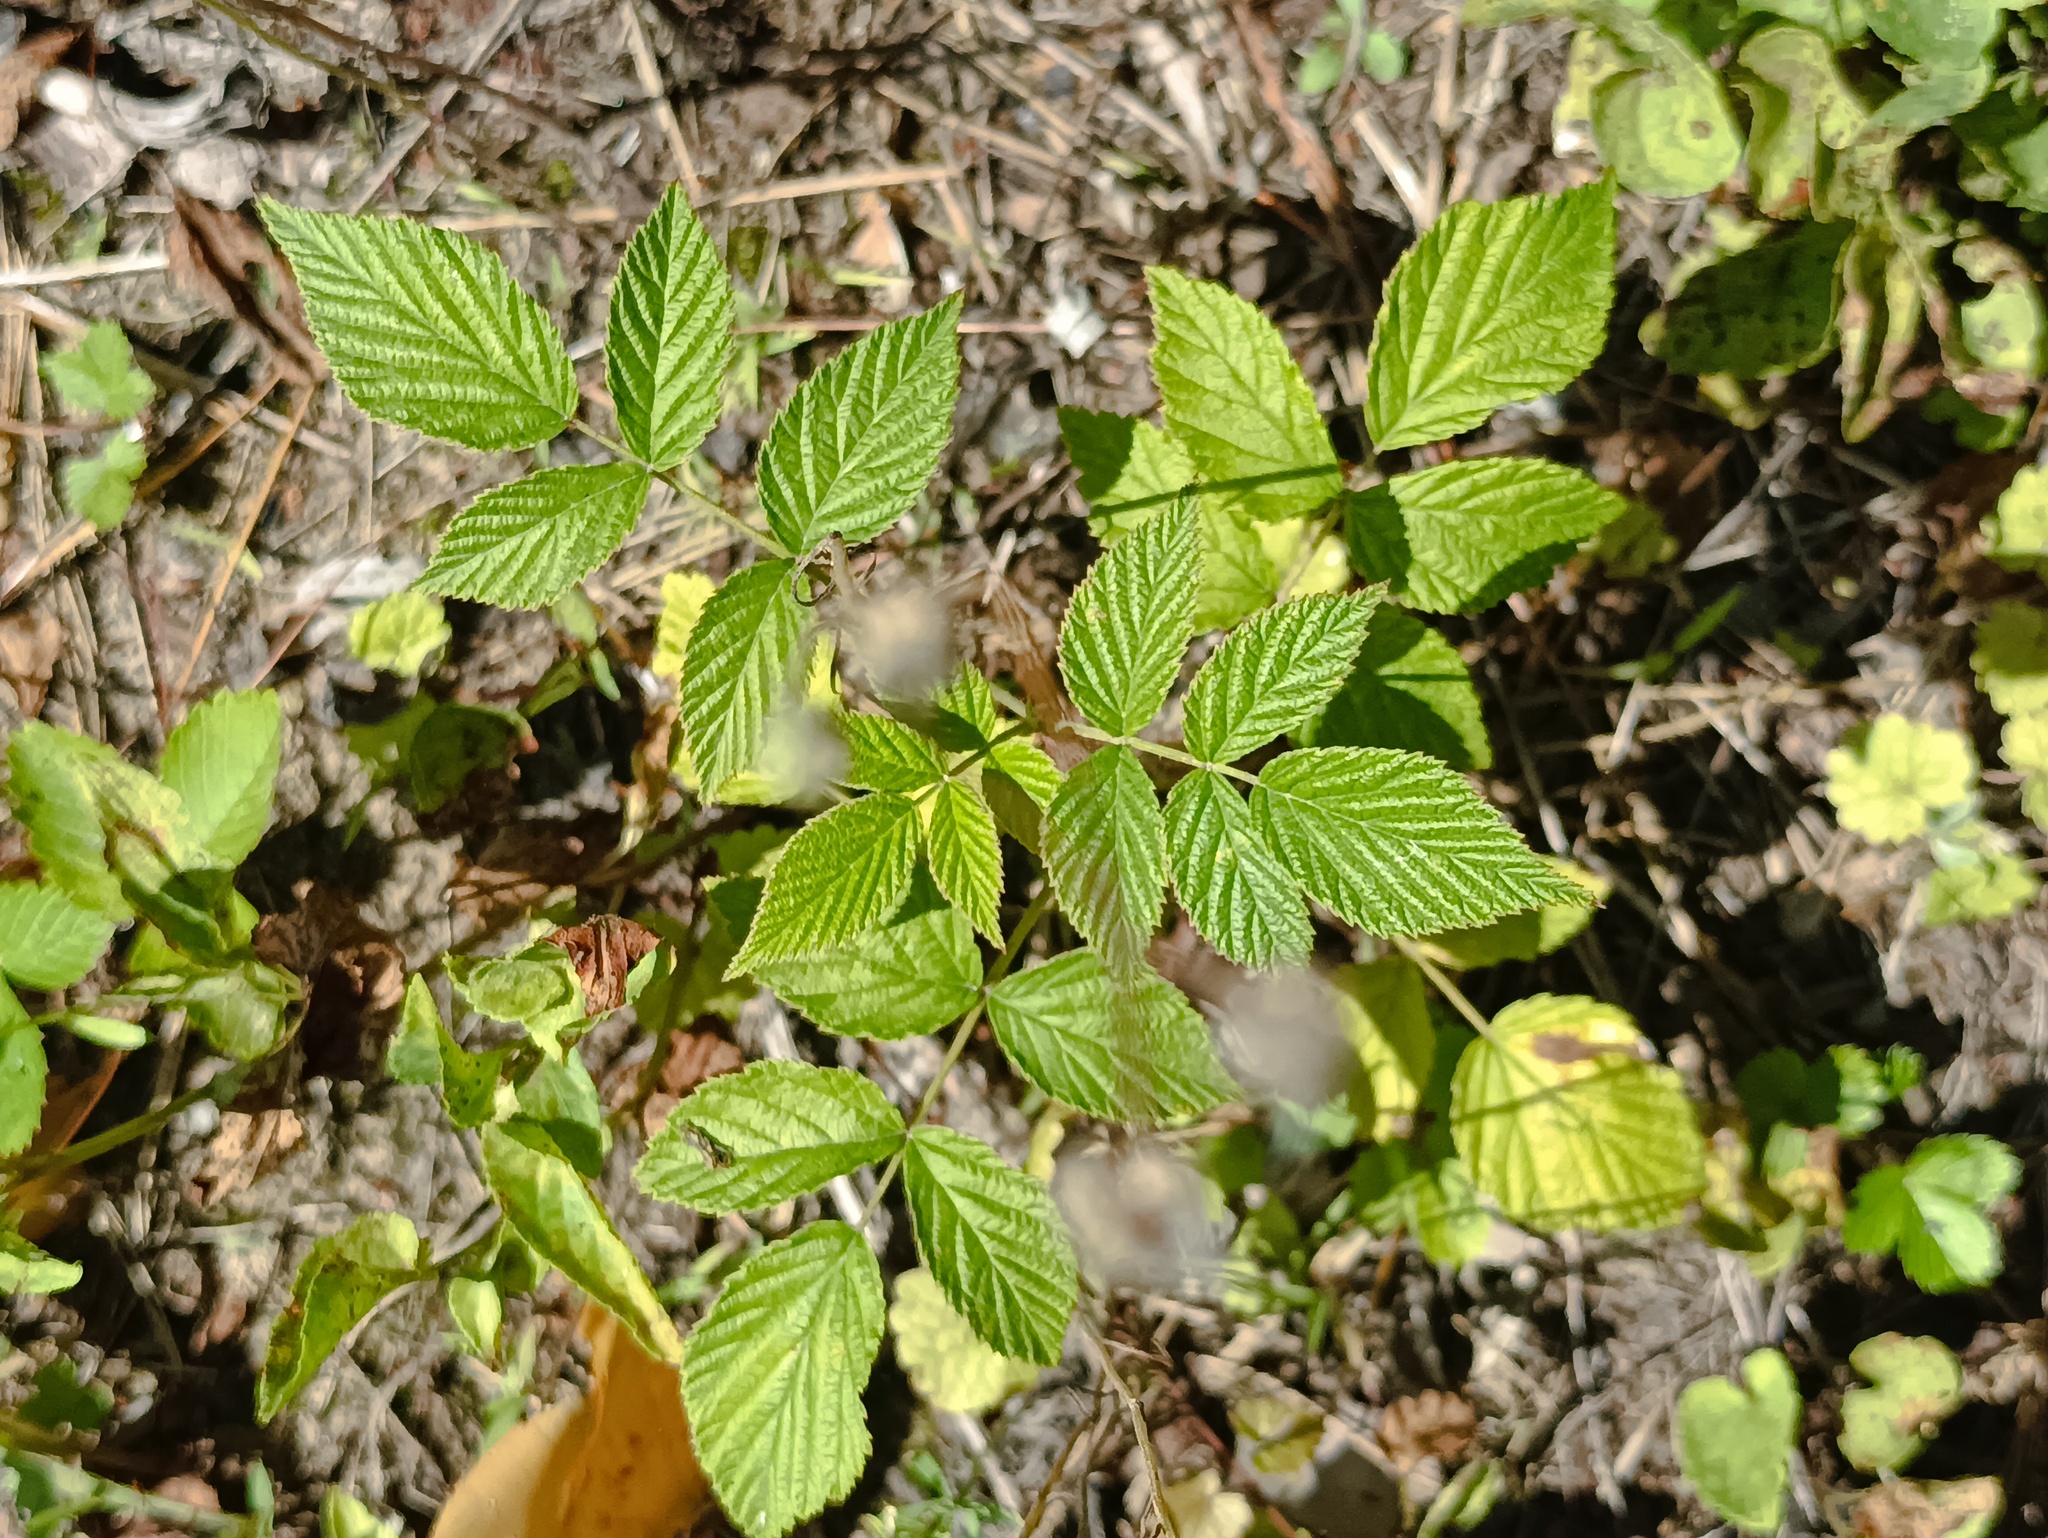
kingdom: Plantae
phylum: Tracheophyta
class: Magnoliopsida
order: Rosales
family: Rosaceae
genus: Rubus
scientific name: Rubus idaeus
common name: Raspberry
